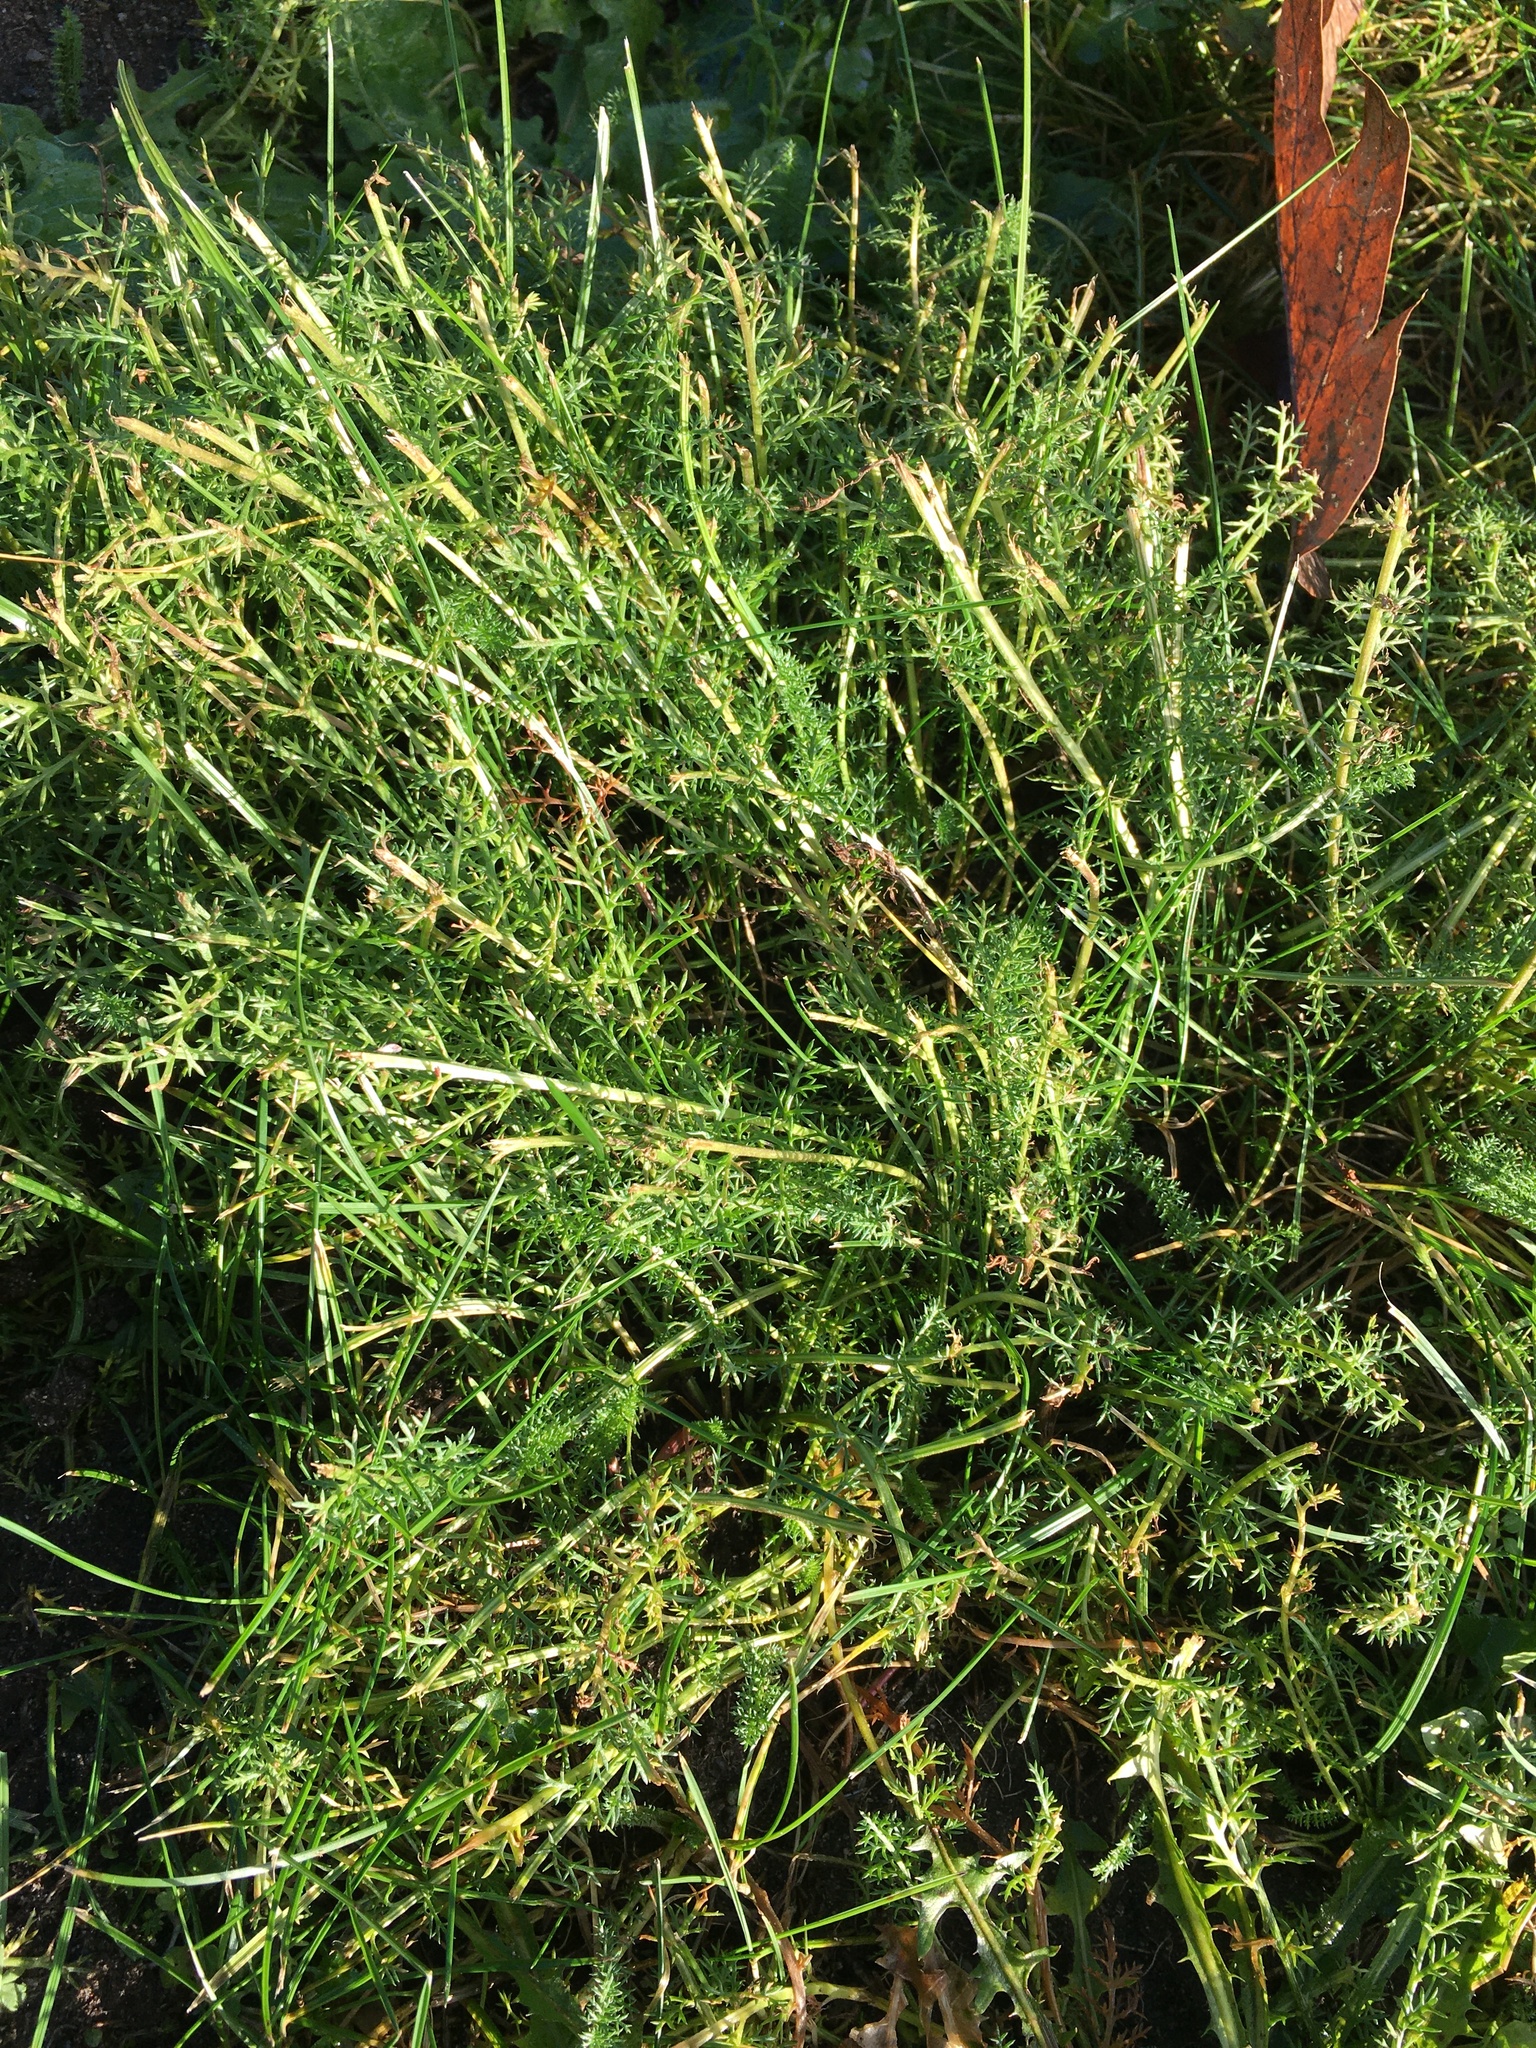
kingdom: Plantae
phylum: Tracheophyta
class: Magnoliopsida
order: Asterales
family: Asteraceae
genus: Achillea
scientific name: Achillea millefolium
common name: Yarrow
